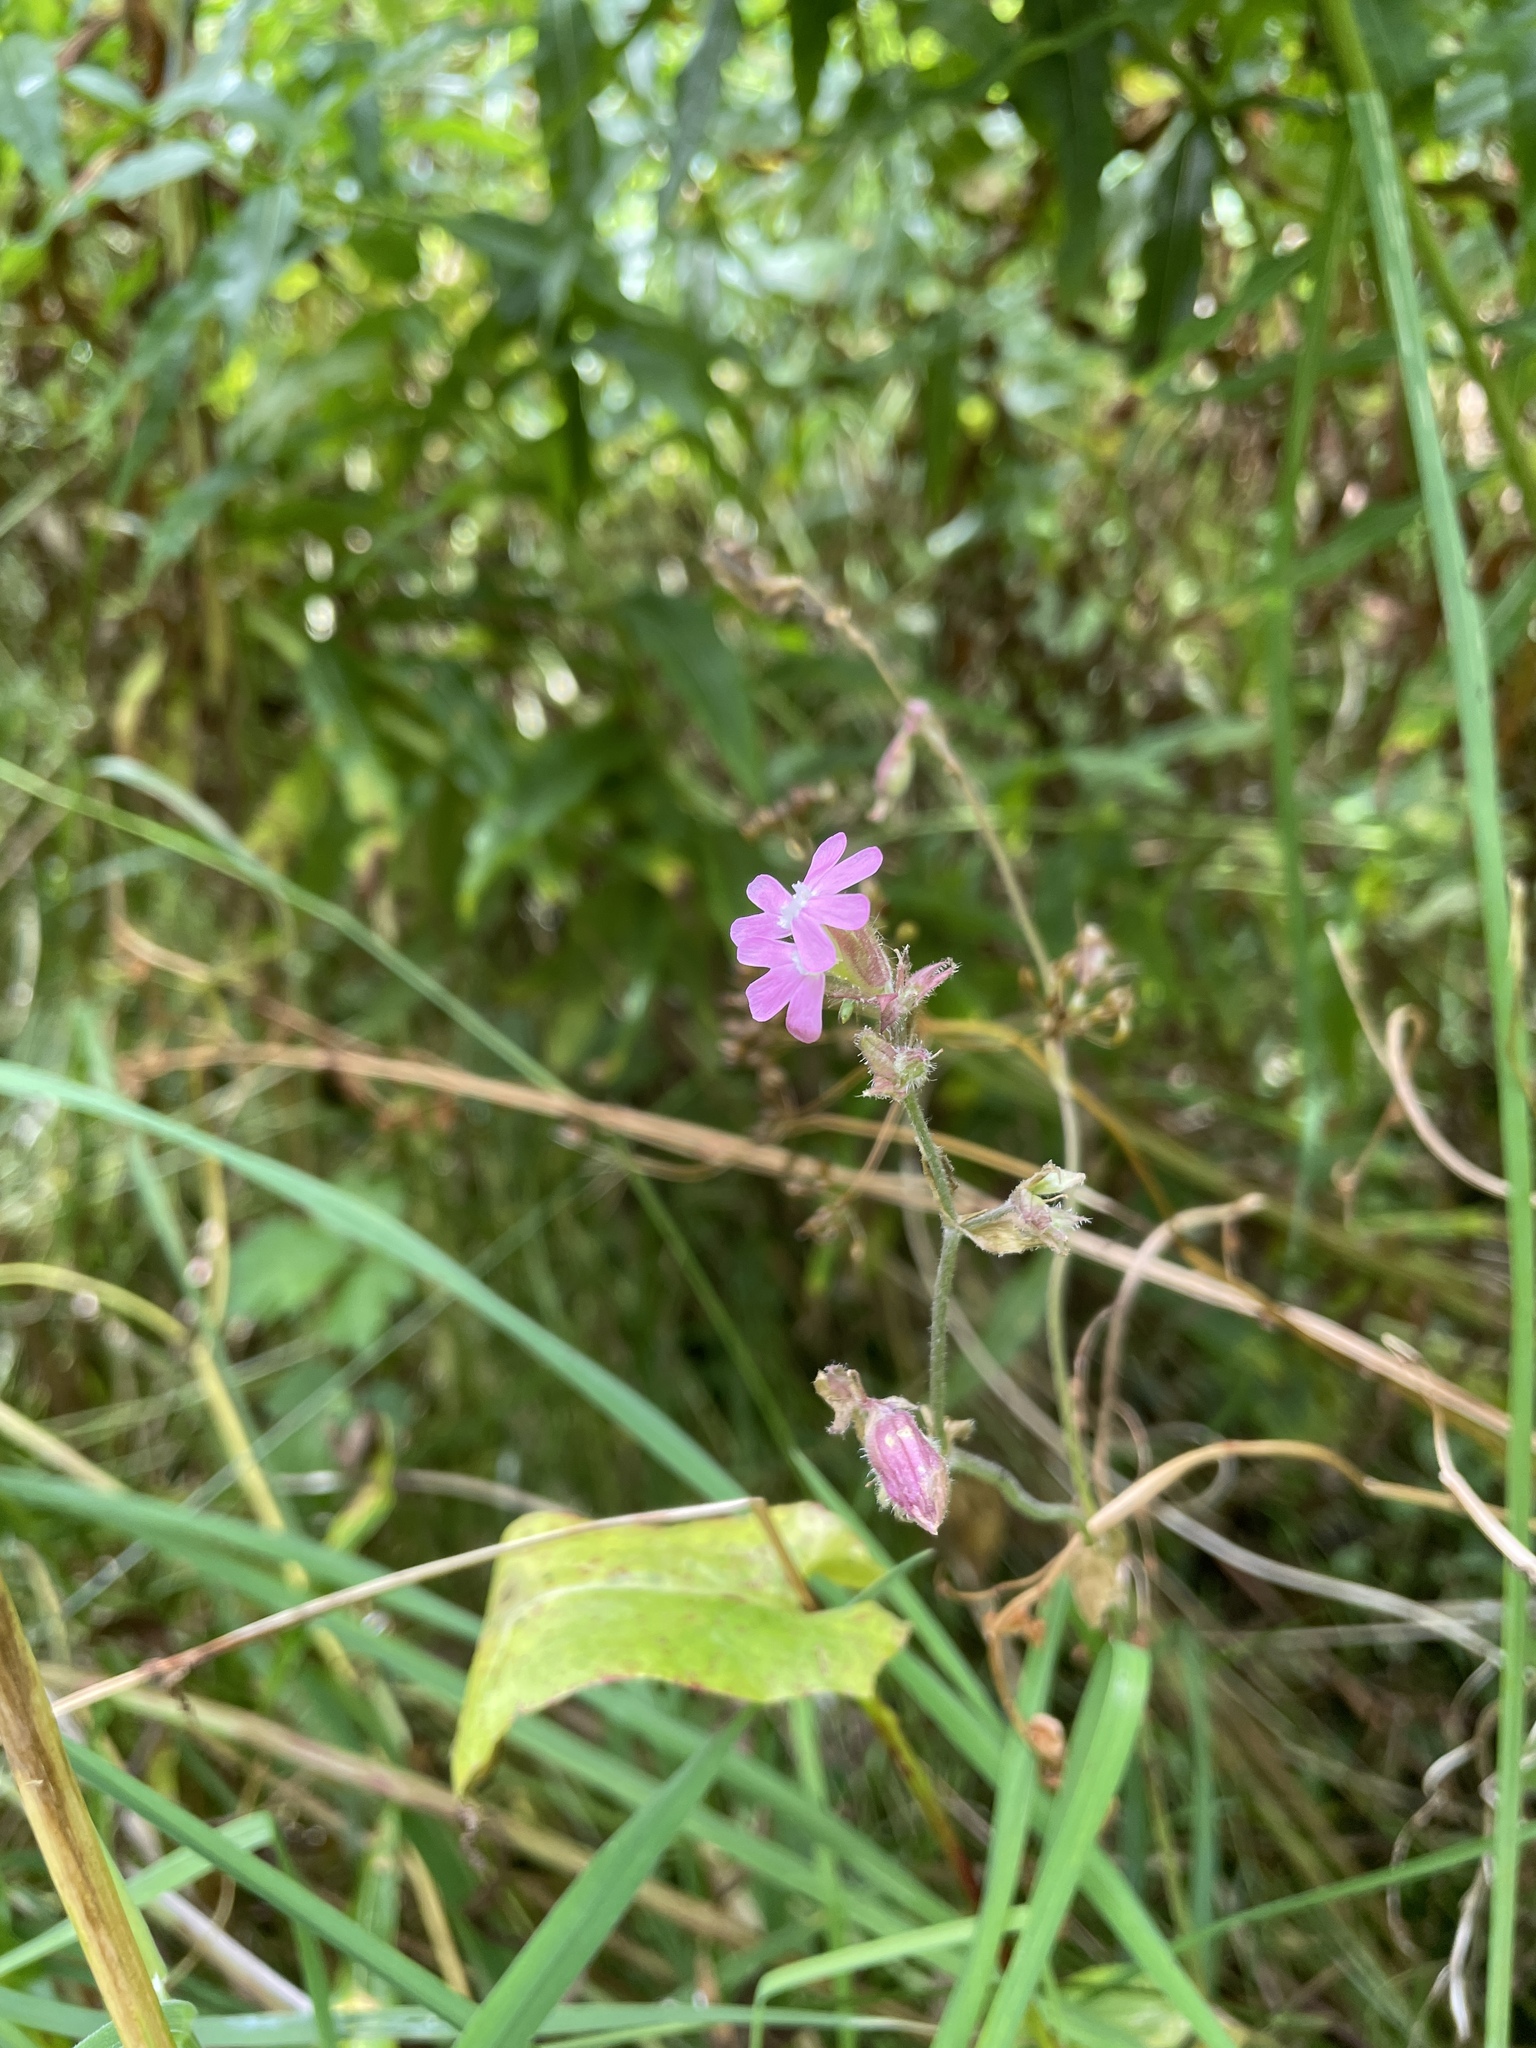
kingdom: Plantae
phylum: Tracheophyta
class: Magnoliopsida
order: Caryophyllales
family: Caryophyllaceae
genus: Silene
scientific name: Silene dioica
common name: Red campion
